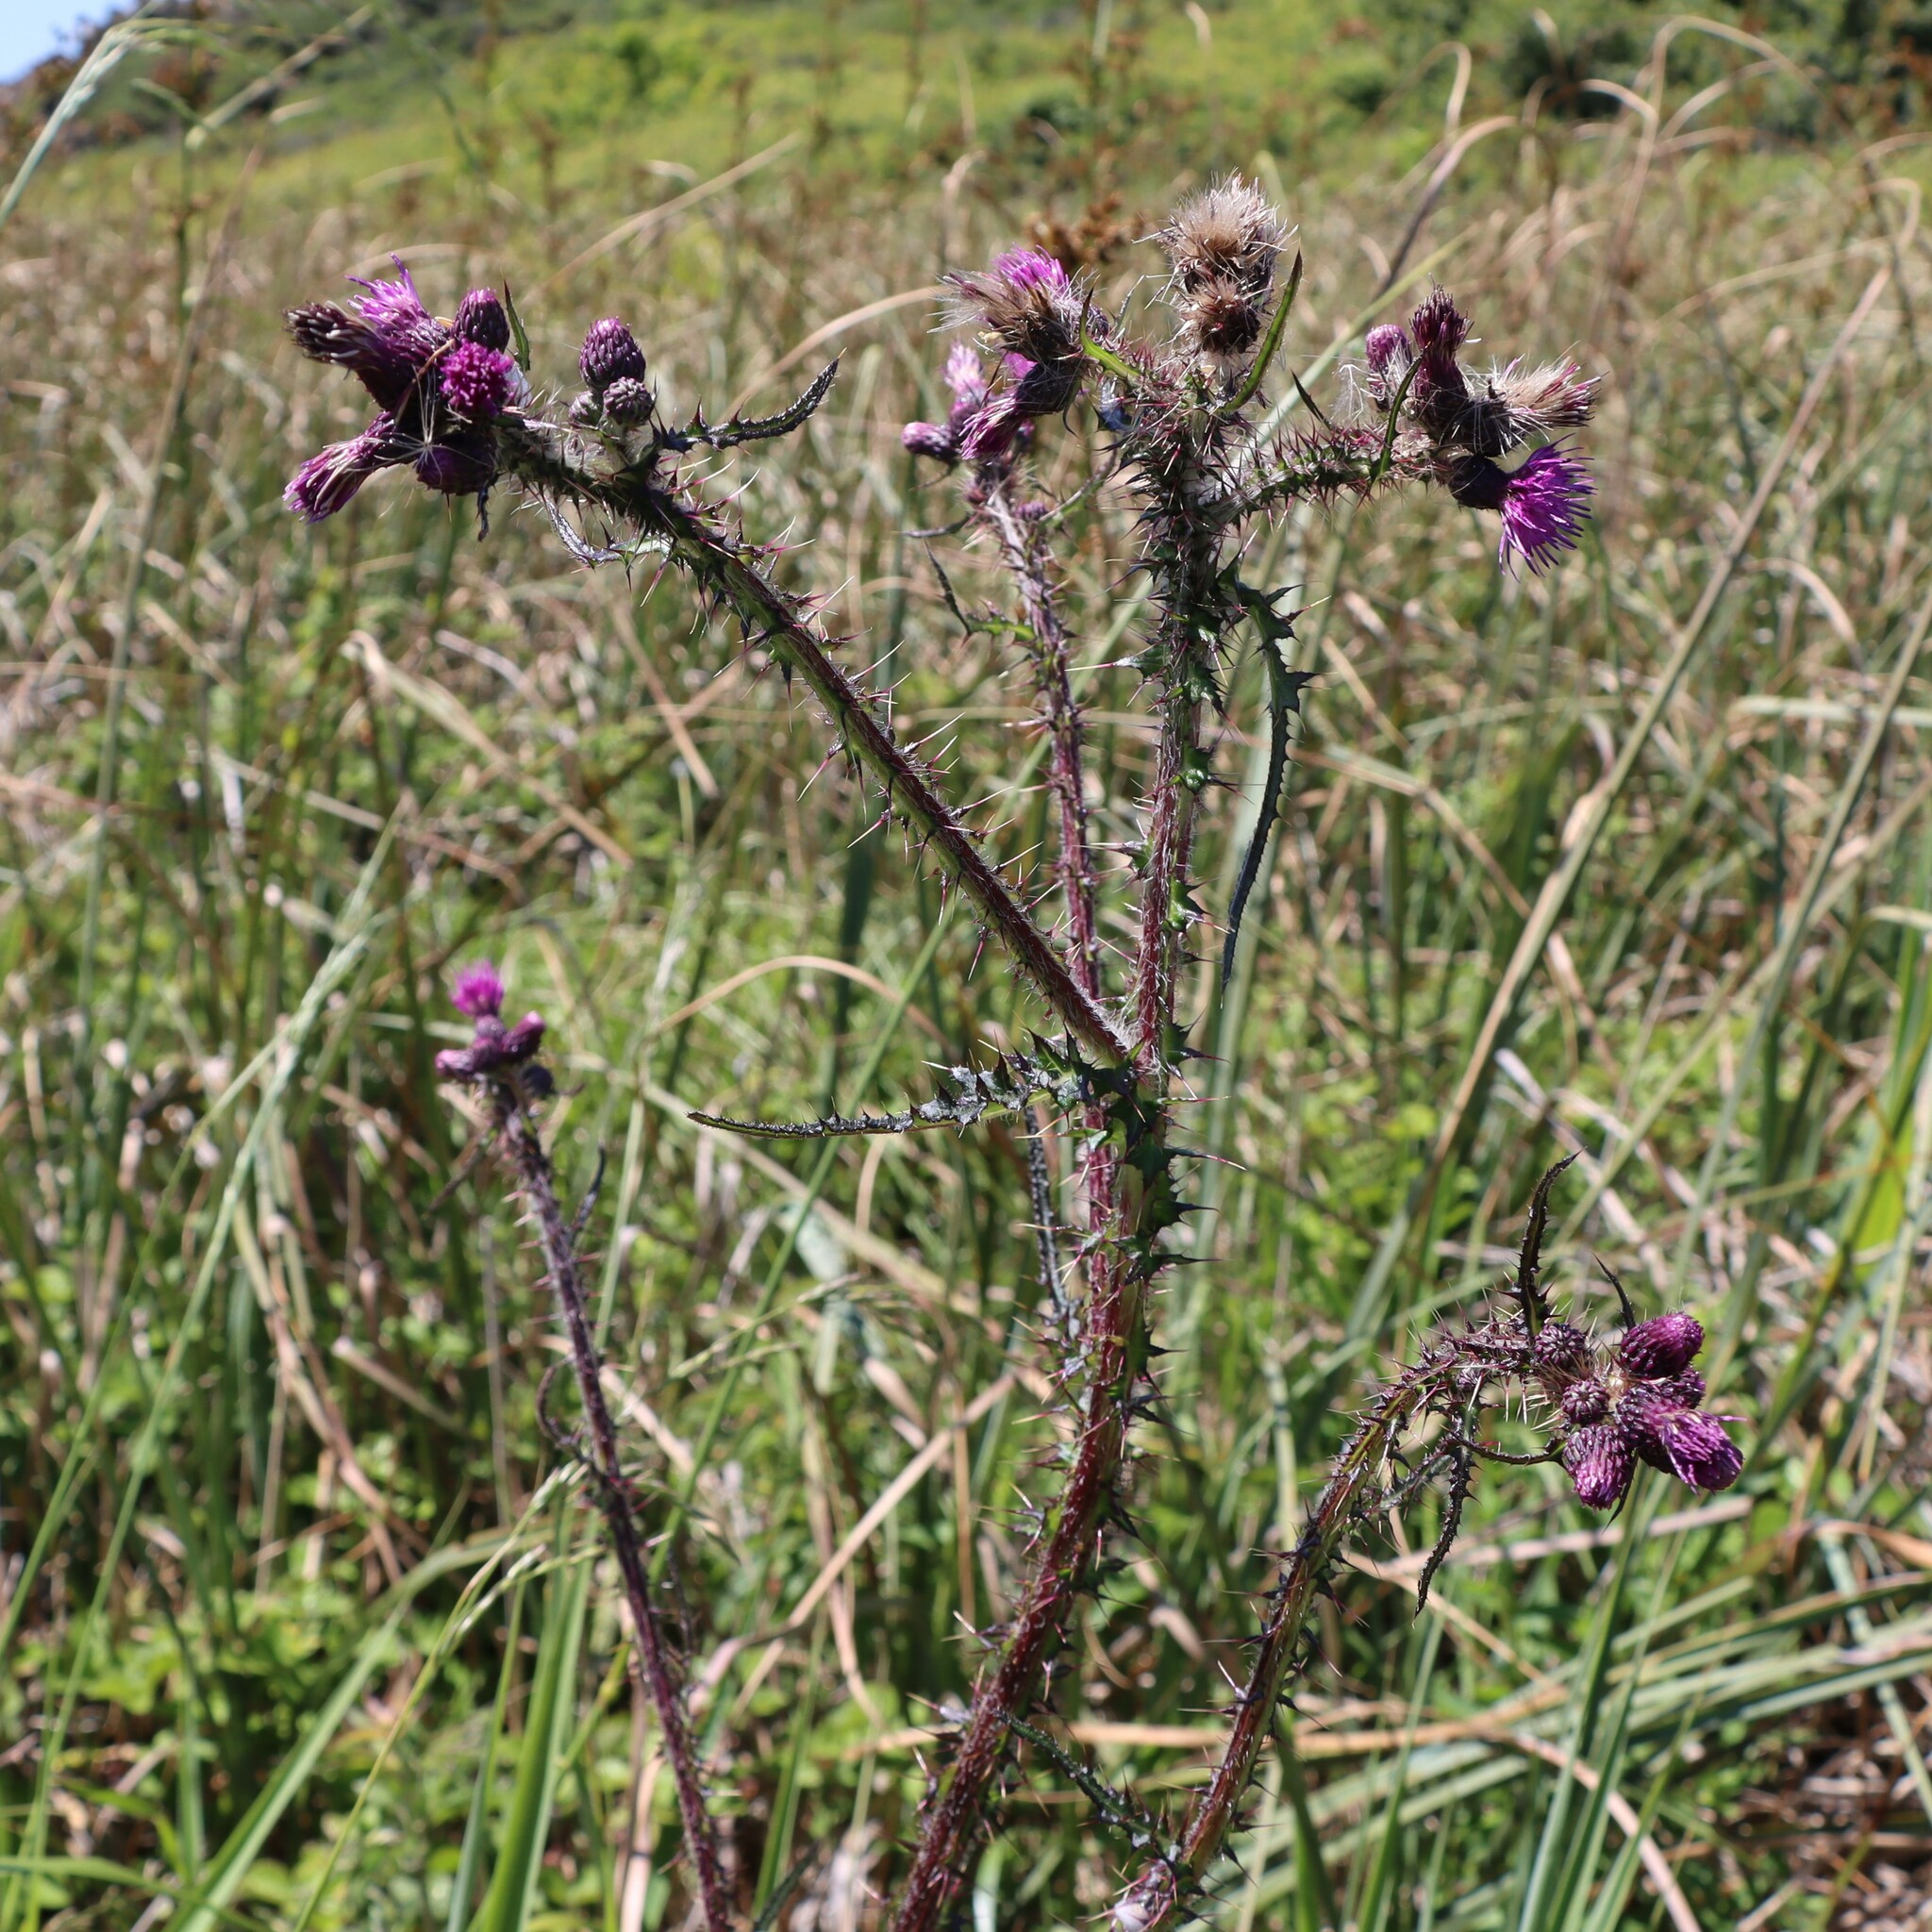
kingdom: Plantae
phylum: Tracheophyta
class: Magnoliopsida
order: Asterales
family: Asteraceae
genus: Cirsium
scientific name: Cirsium palustre
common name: Marsh thistle
